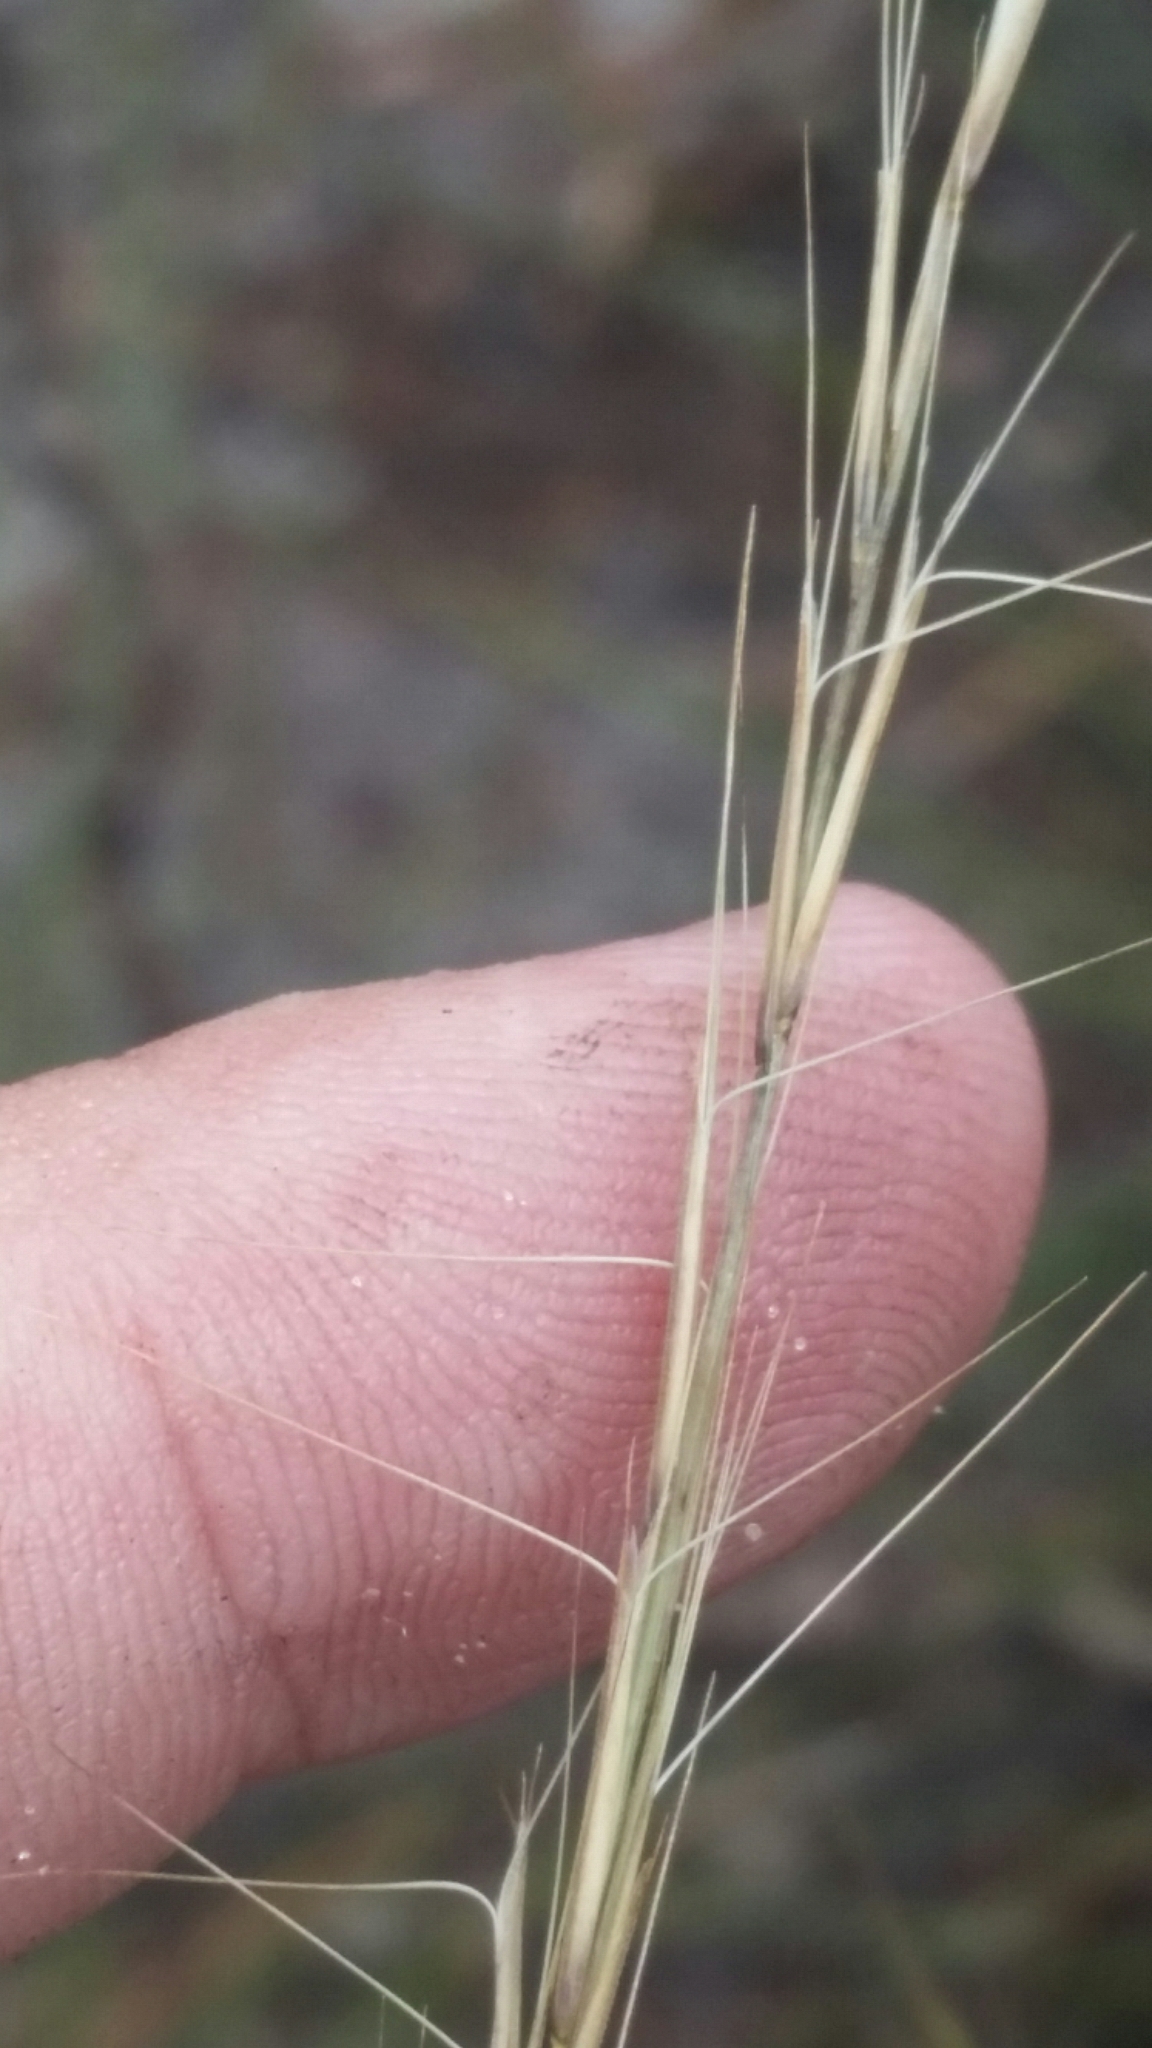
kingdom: Plantae
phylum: Tracheophyta
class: Liliopsida
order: Poales
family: Poaceae
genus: Aristida
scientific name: Aristida beyrichiana
